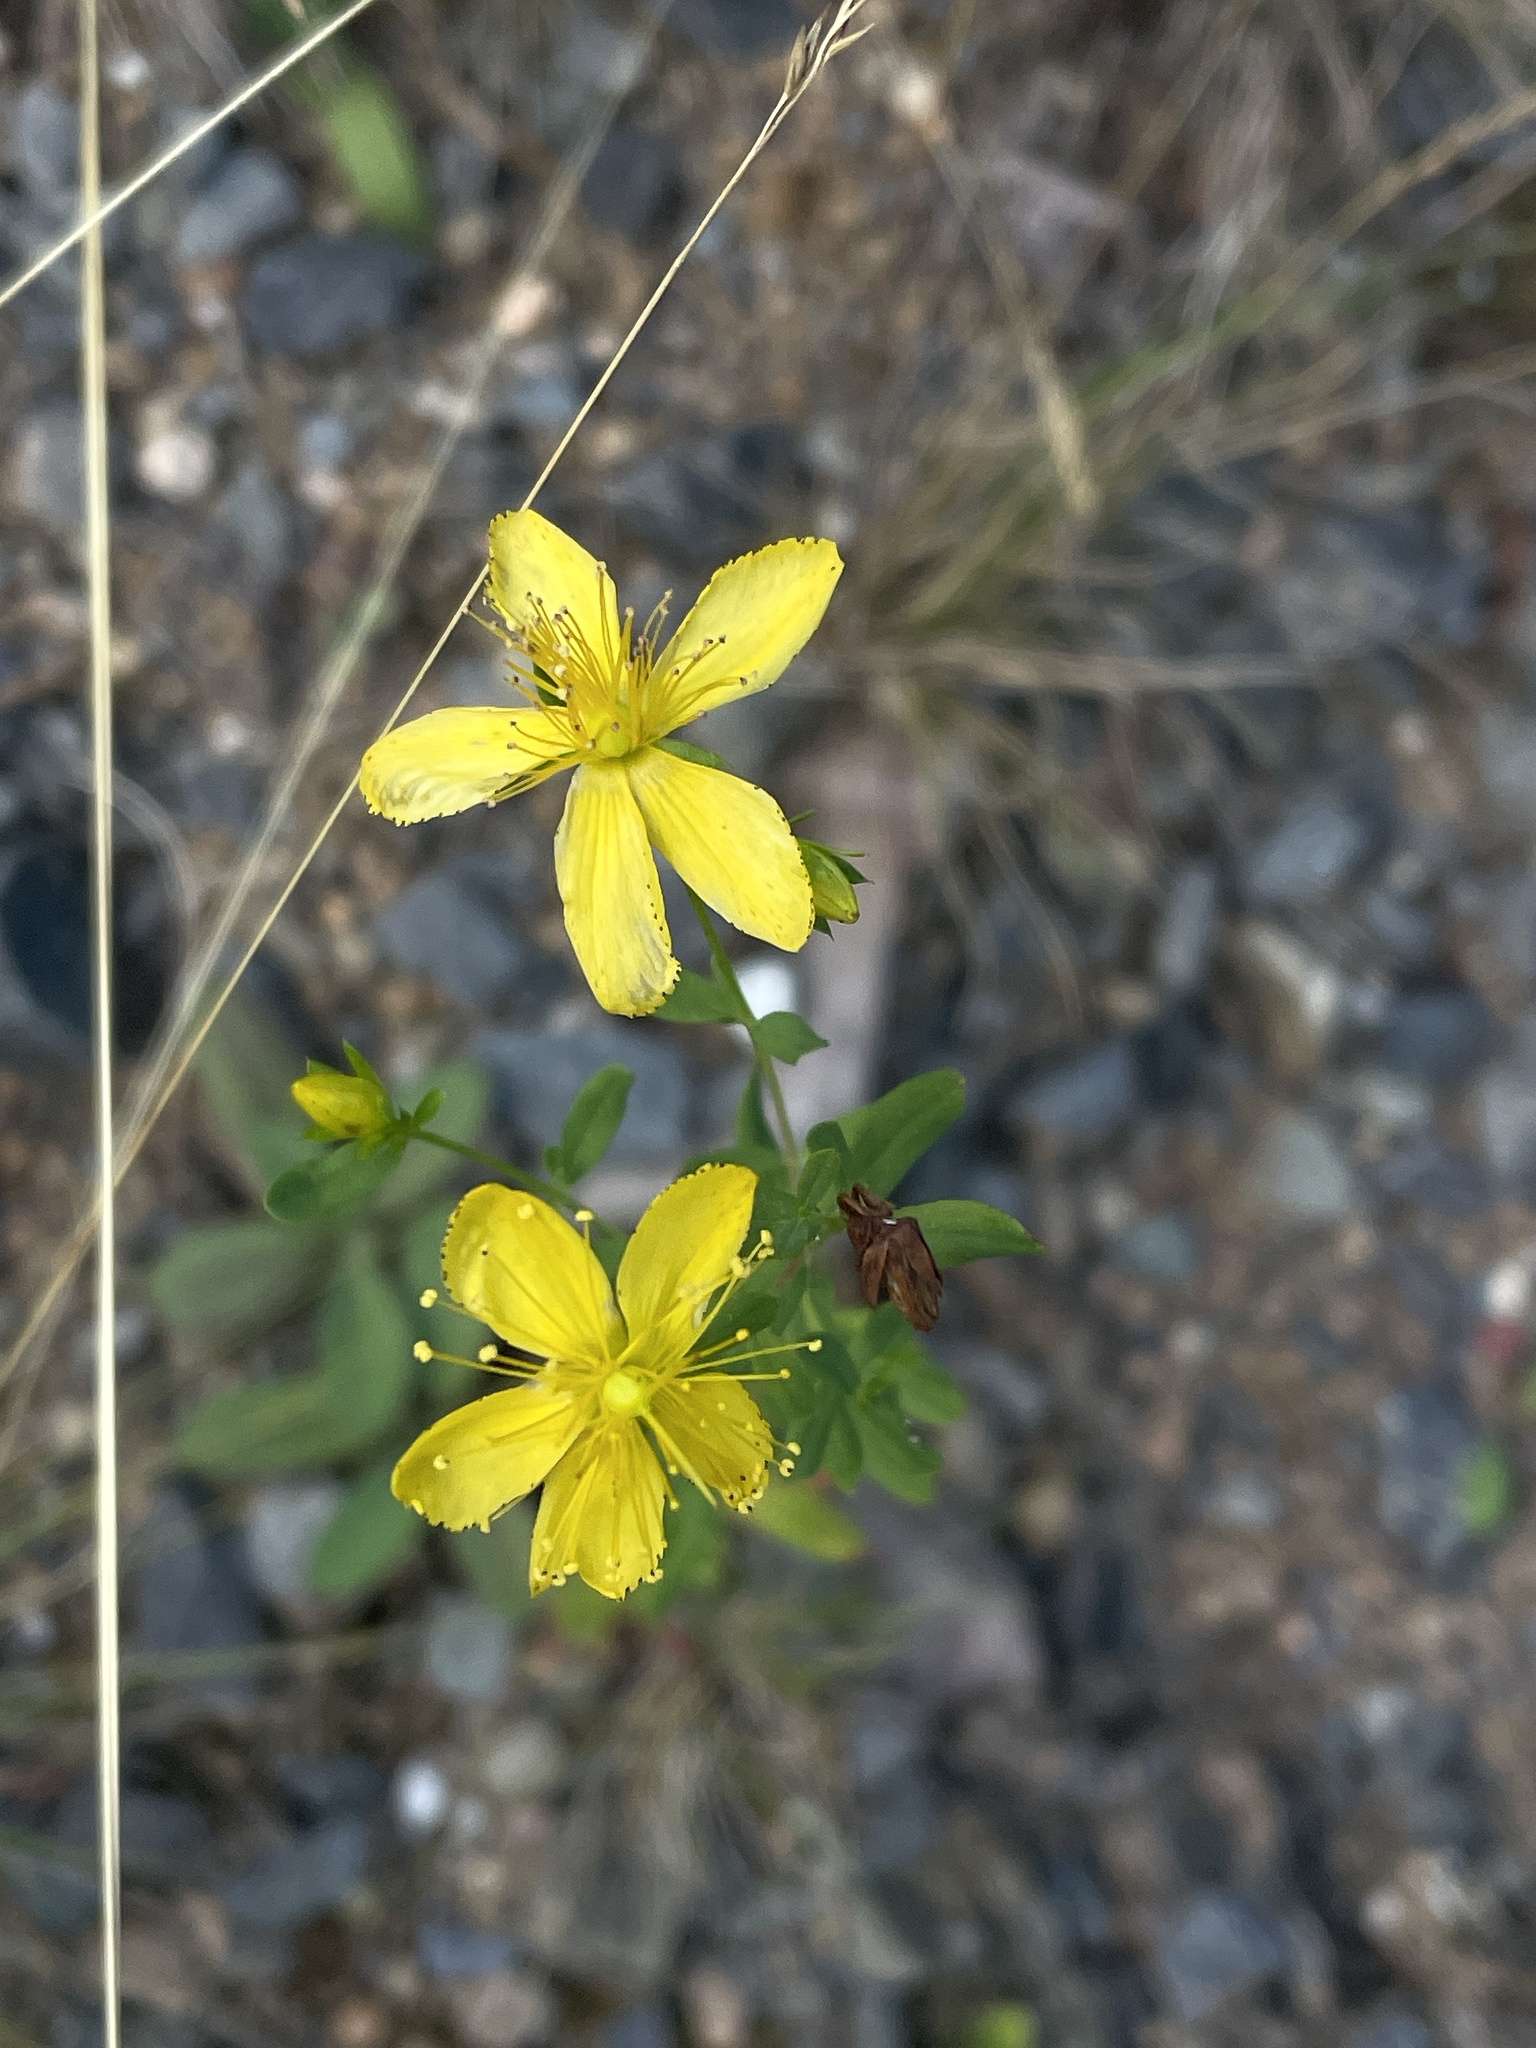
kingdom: Plantae
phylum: Tracheophyta
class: Magnoliopsida
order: Malpighiales
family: Hypericaceae
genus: Hypericum
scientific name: Hypericum perforatum
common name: Common st. johnswort
